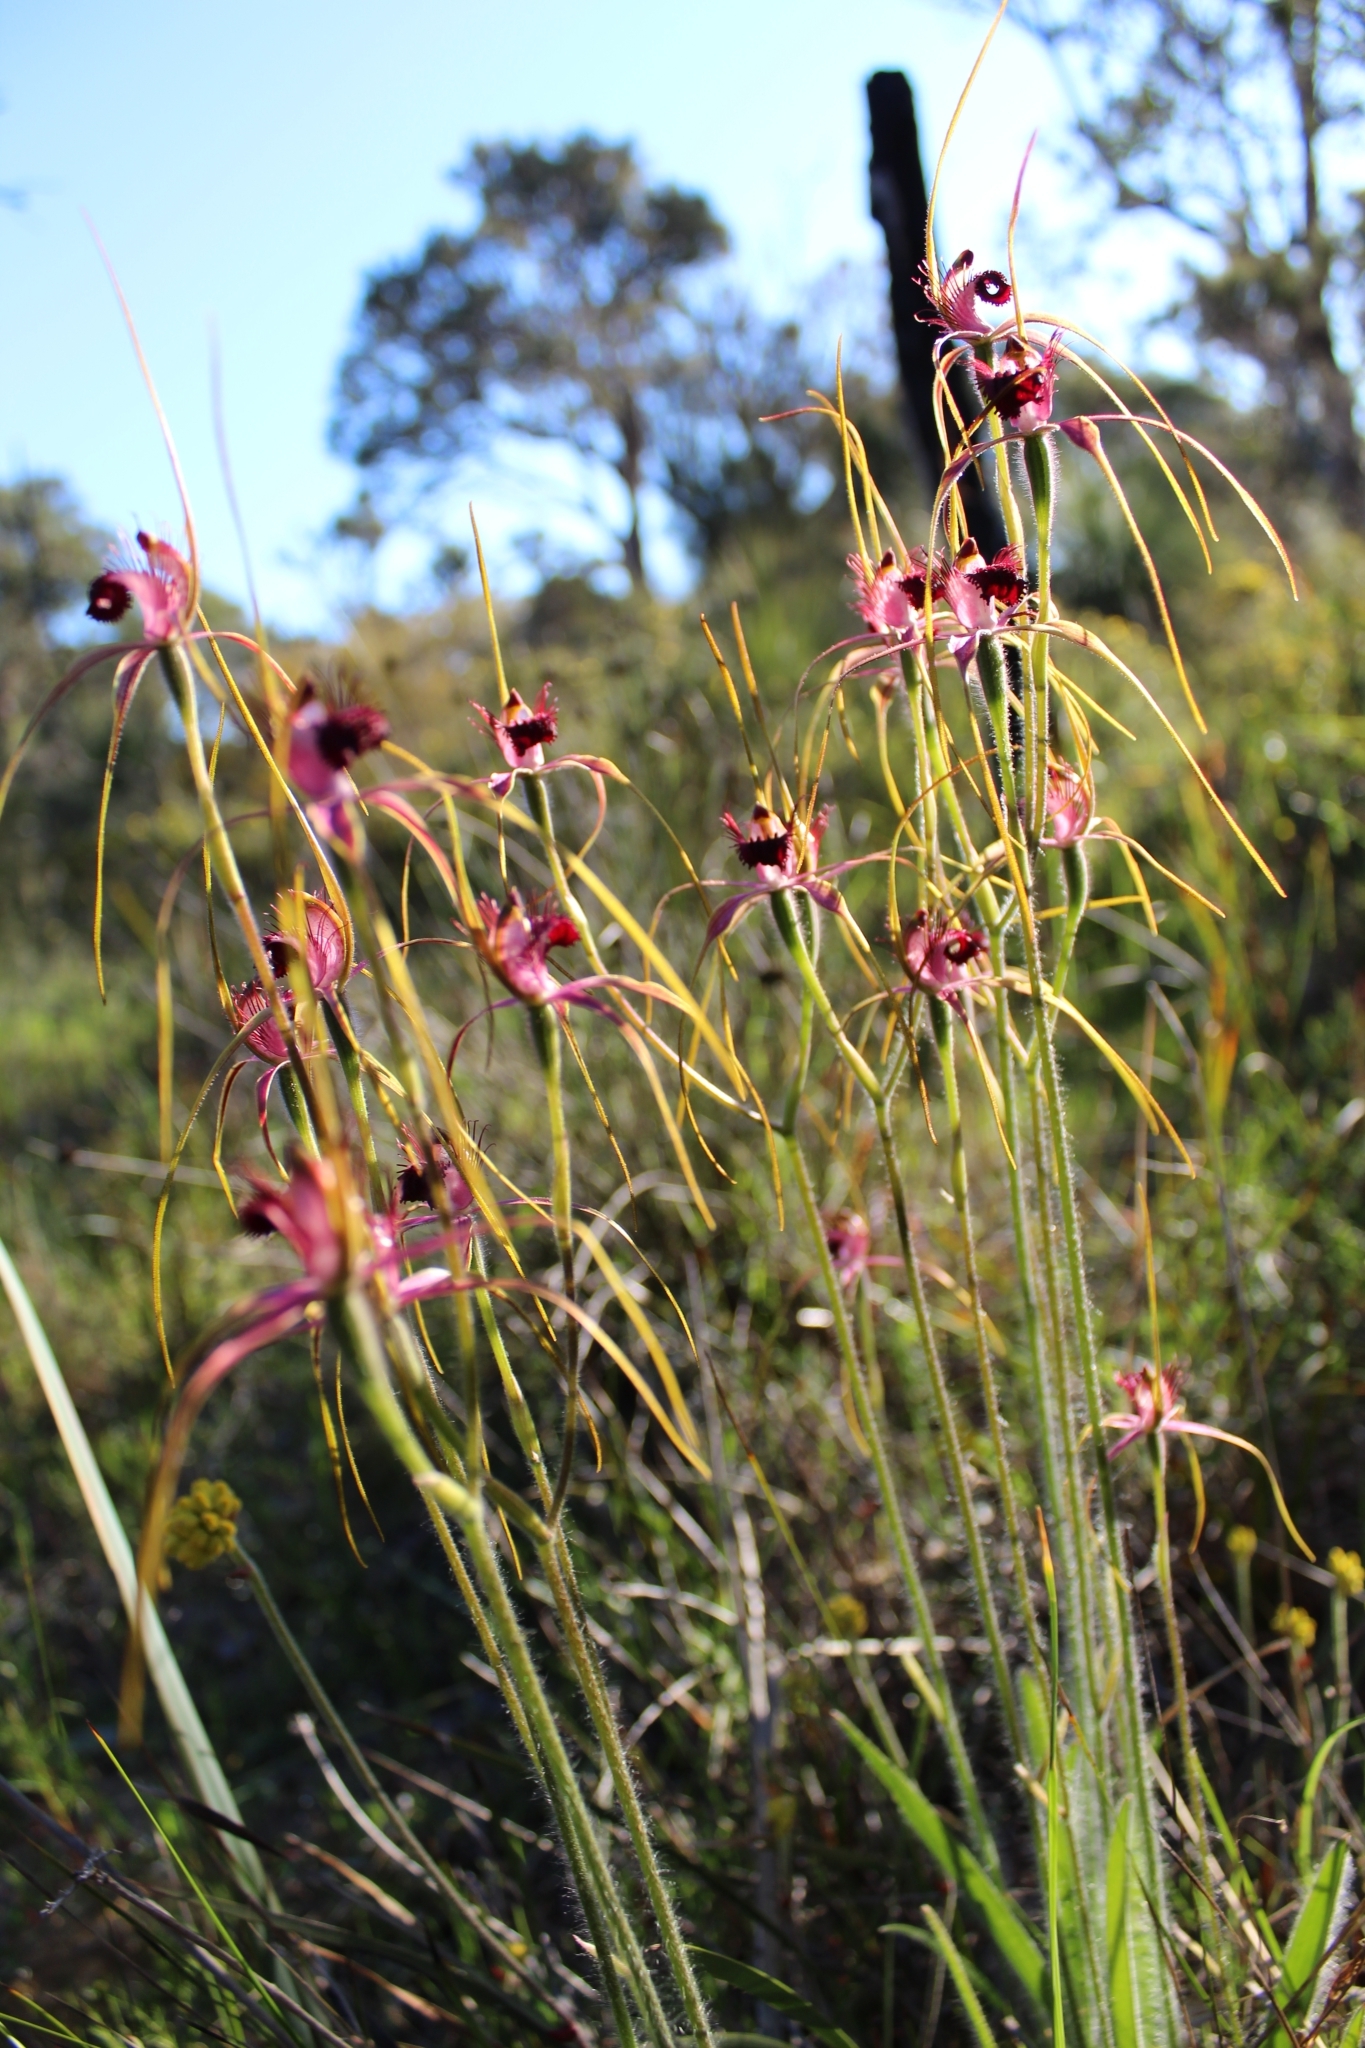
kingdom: Plantae
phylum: Tracheophyta
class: Liliopsida
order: Asparagales
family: Orchidaceae
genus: Caladenia
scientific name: Caladenia arenicola
